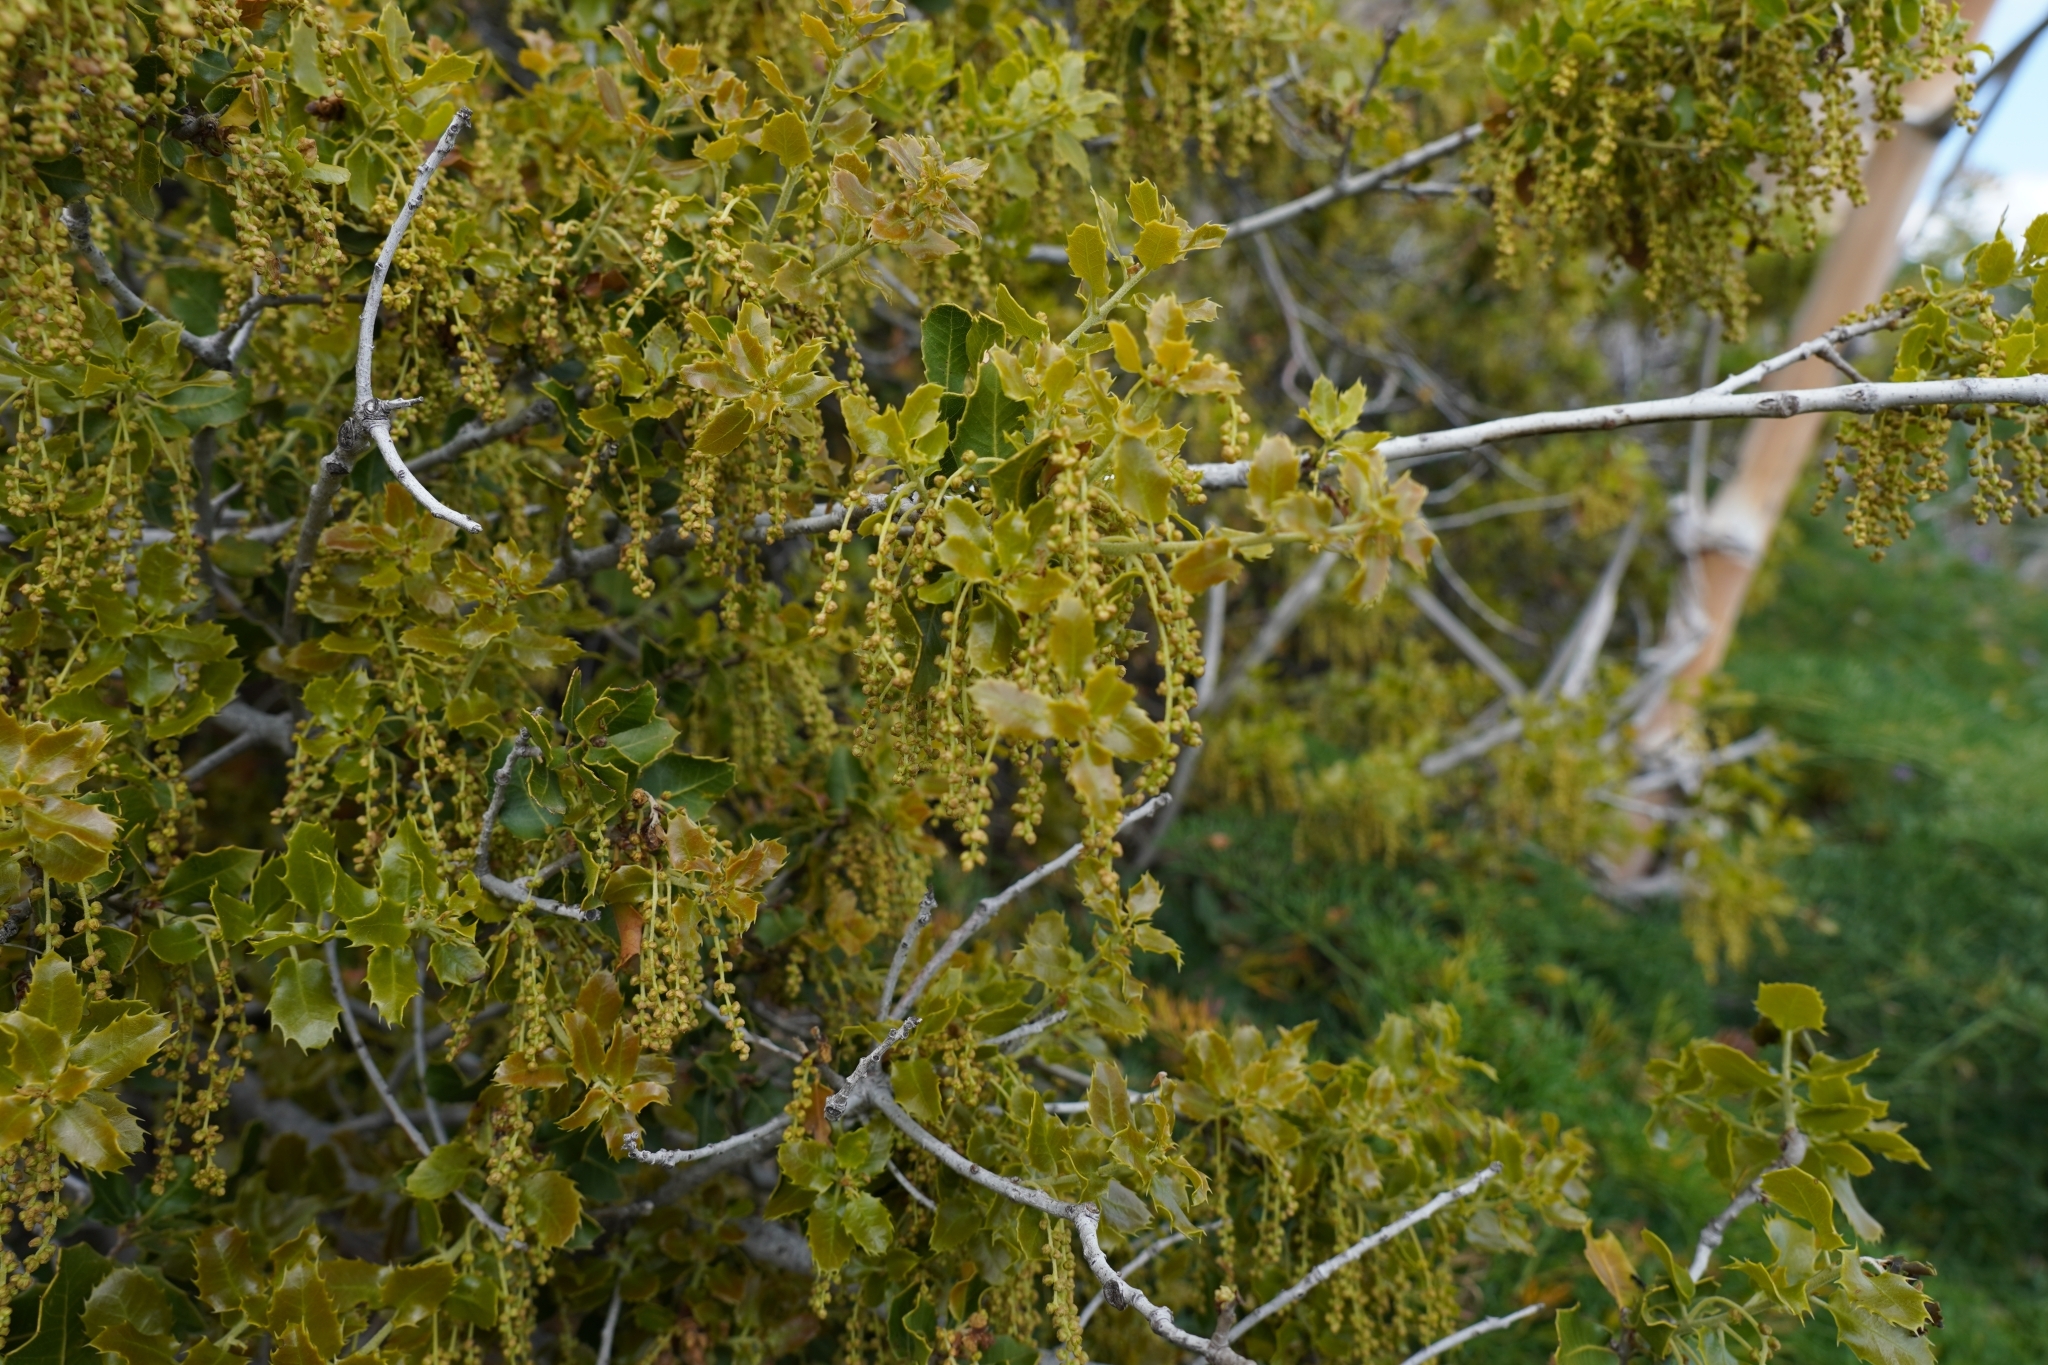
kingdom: Plantae
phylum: Tracheophyta
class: Magnoliopsida
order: Fagales
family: Fagaceae
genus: Quercus
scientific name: Quercus coccifera
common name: Kermes oak
